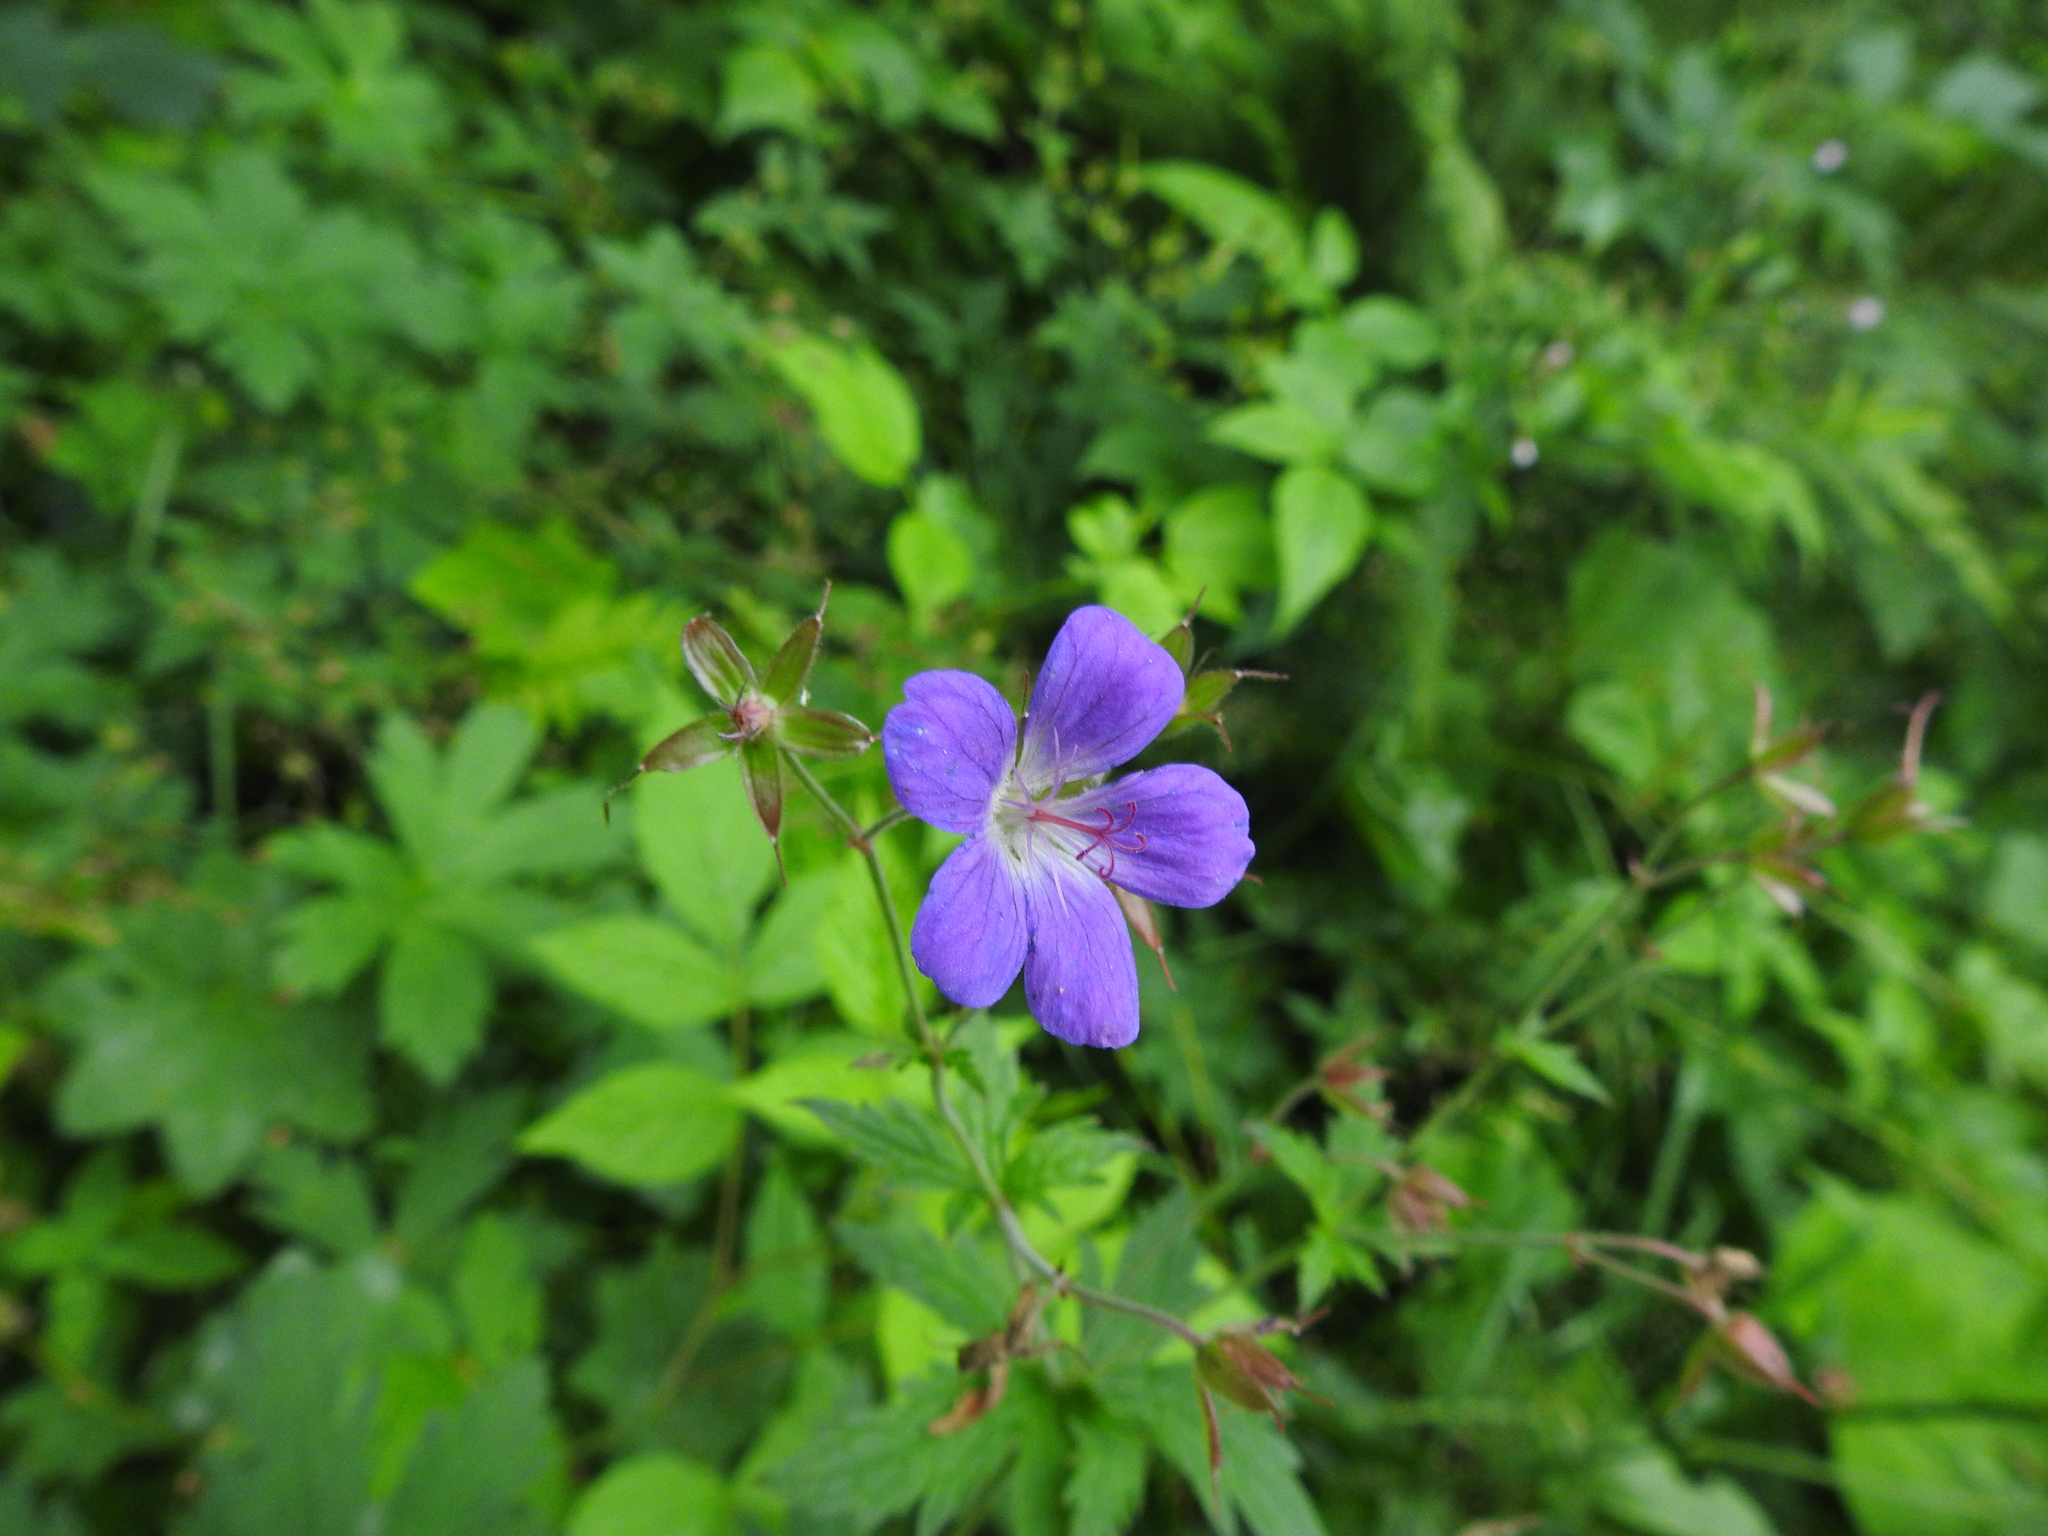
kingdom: Plantae
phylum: Tracheophyta
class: Magnoliopsida
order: Geraniales
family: Geraniaceae
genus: Geranium
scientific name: Geranium sylvaticum
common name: Wood crane's-bill
